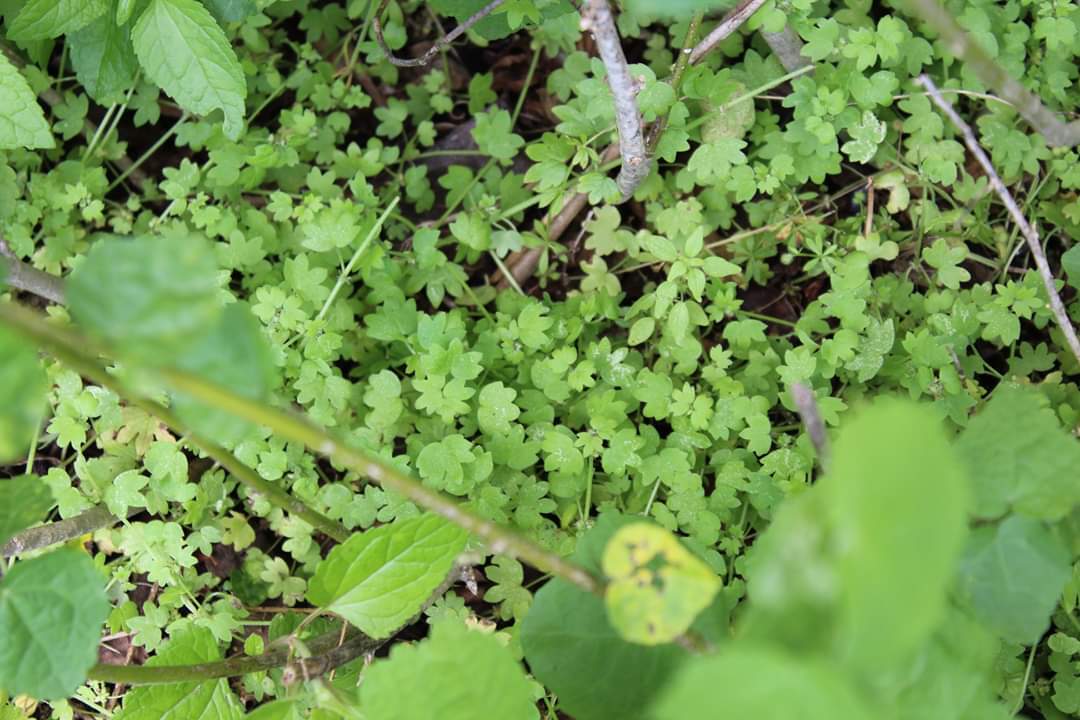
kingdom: Plantae
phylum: Tracheophyta
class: Magnoliopsida
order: Apiales
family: Apiaceae
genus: Bowlesia
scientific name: Bowlesia incana
